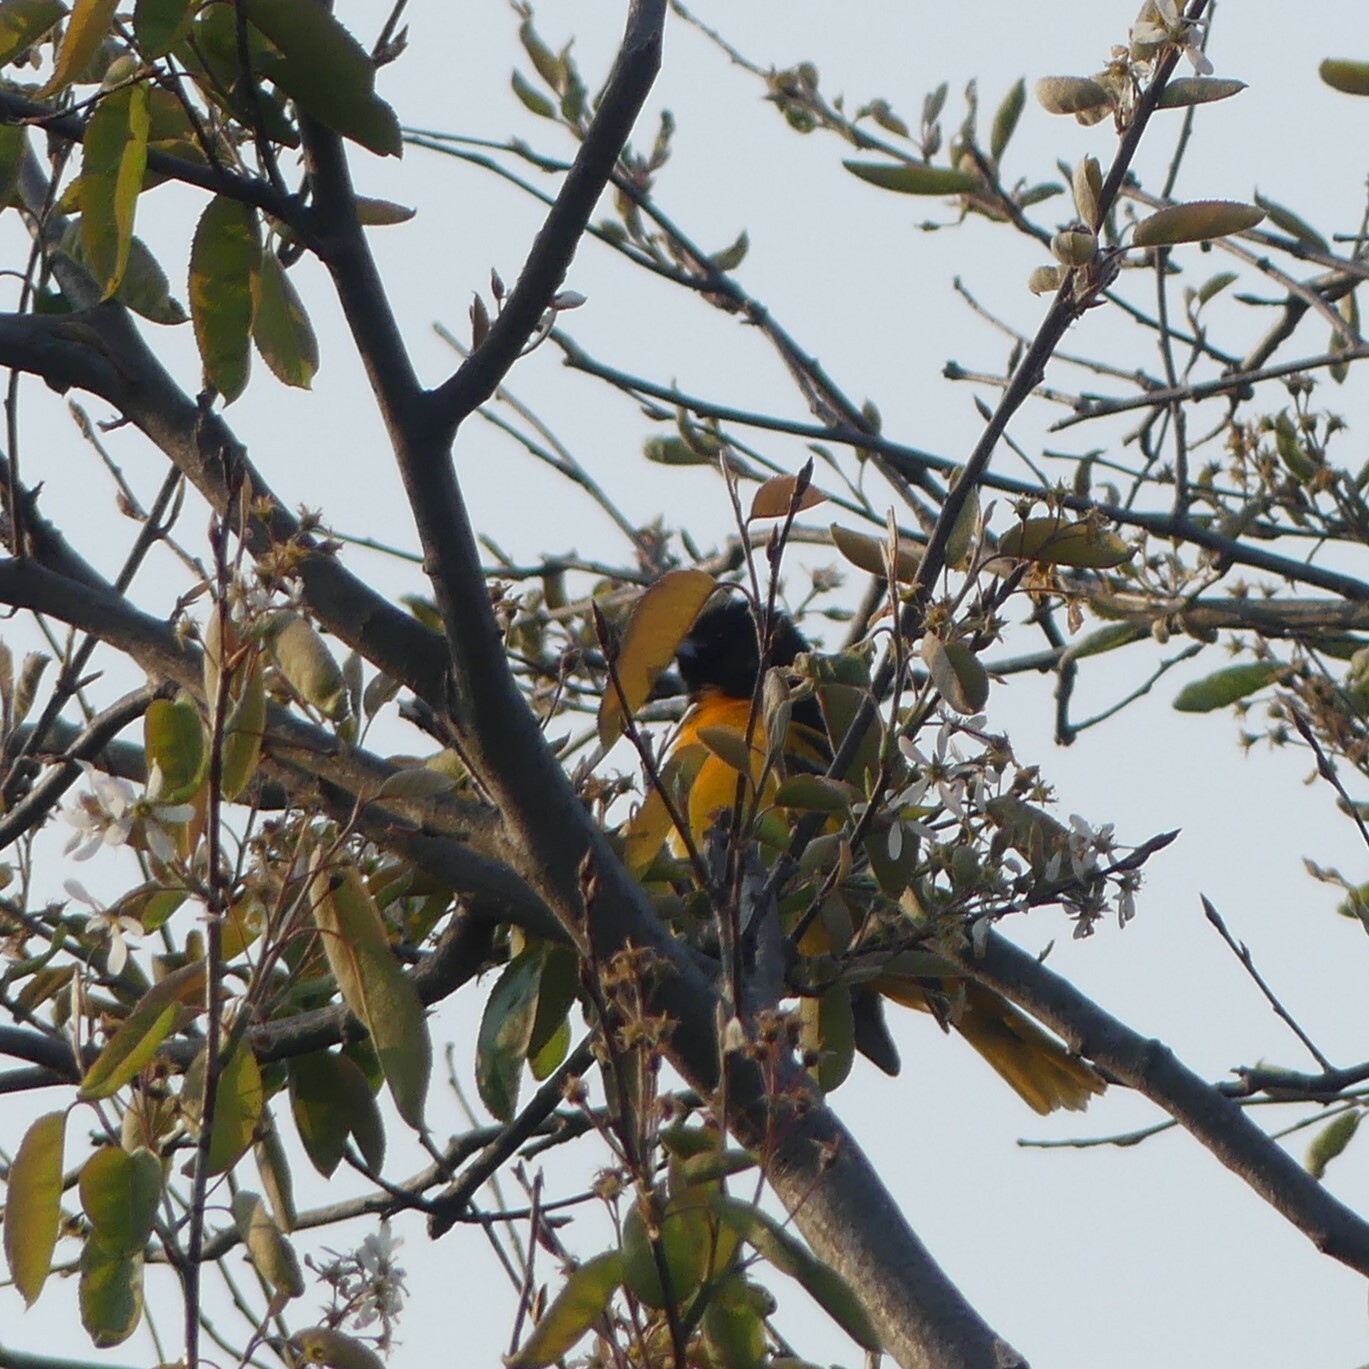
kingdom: Animalia
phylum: Chordata
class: Aves
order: Passeriformes
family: Icteridae
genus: Icterus
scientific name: Icterus galbula
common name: Baltimore oriole
